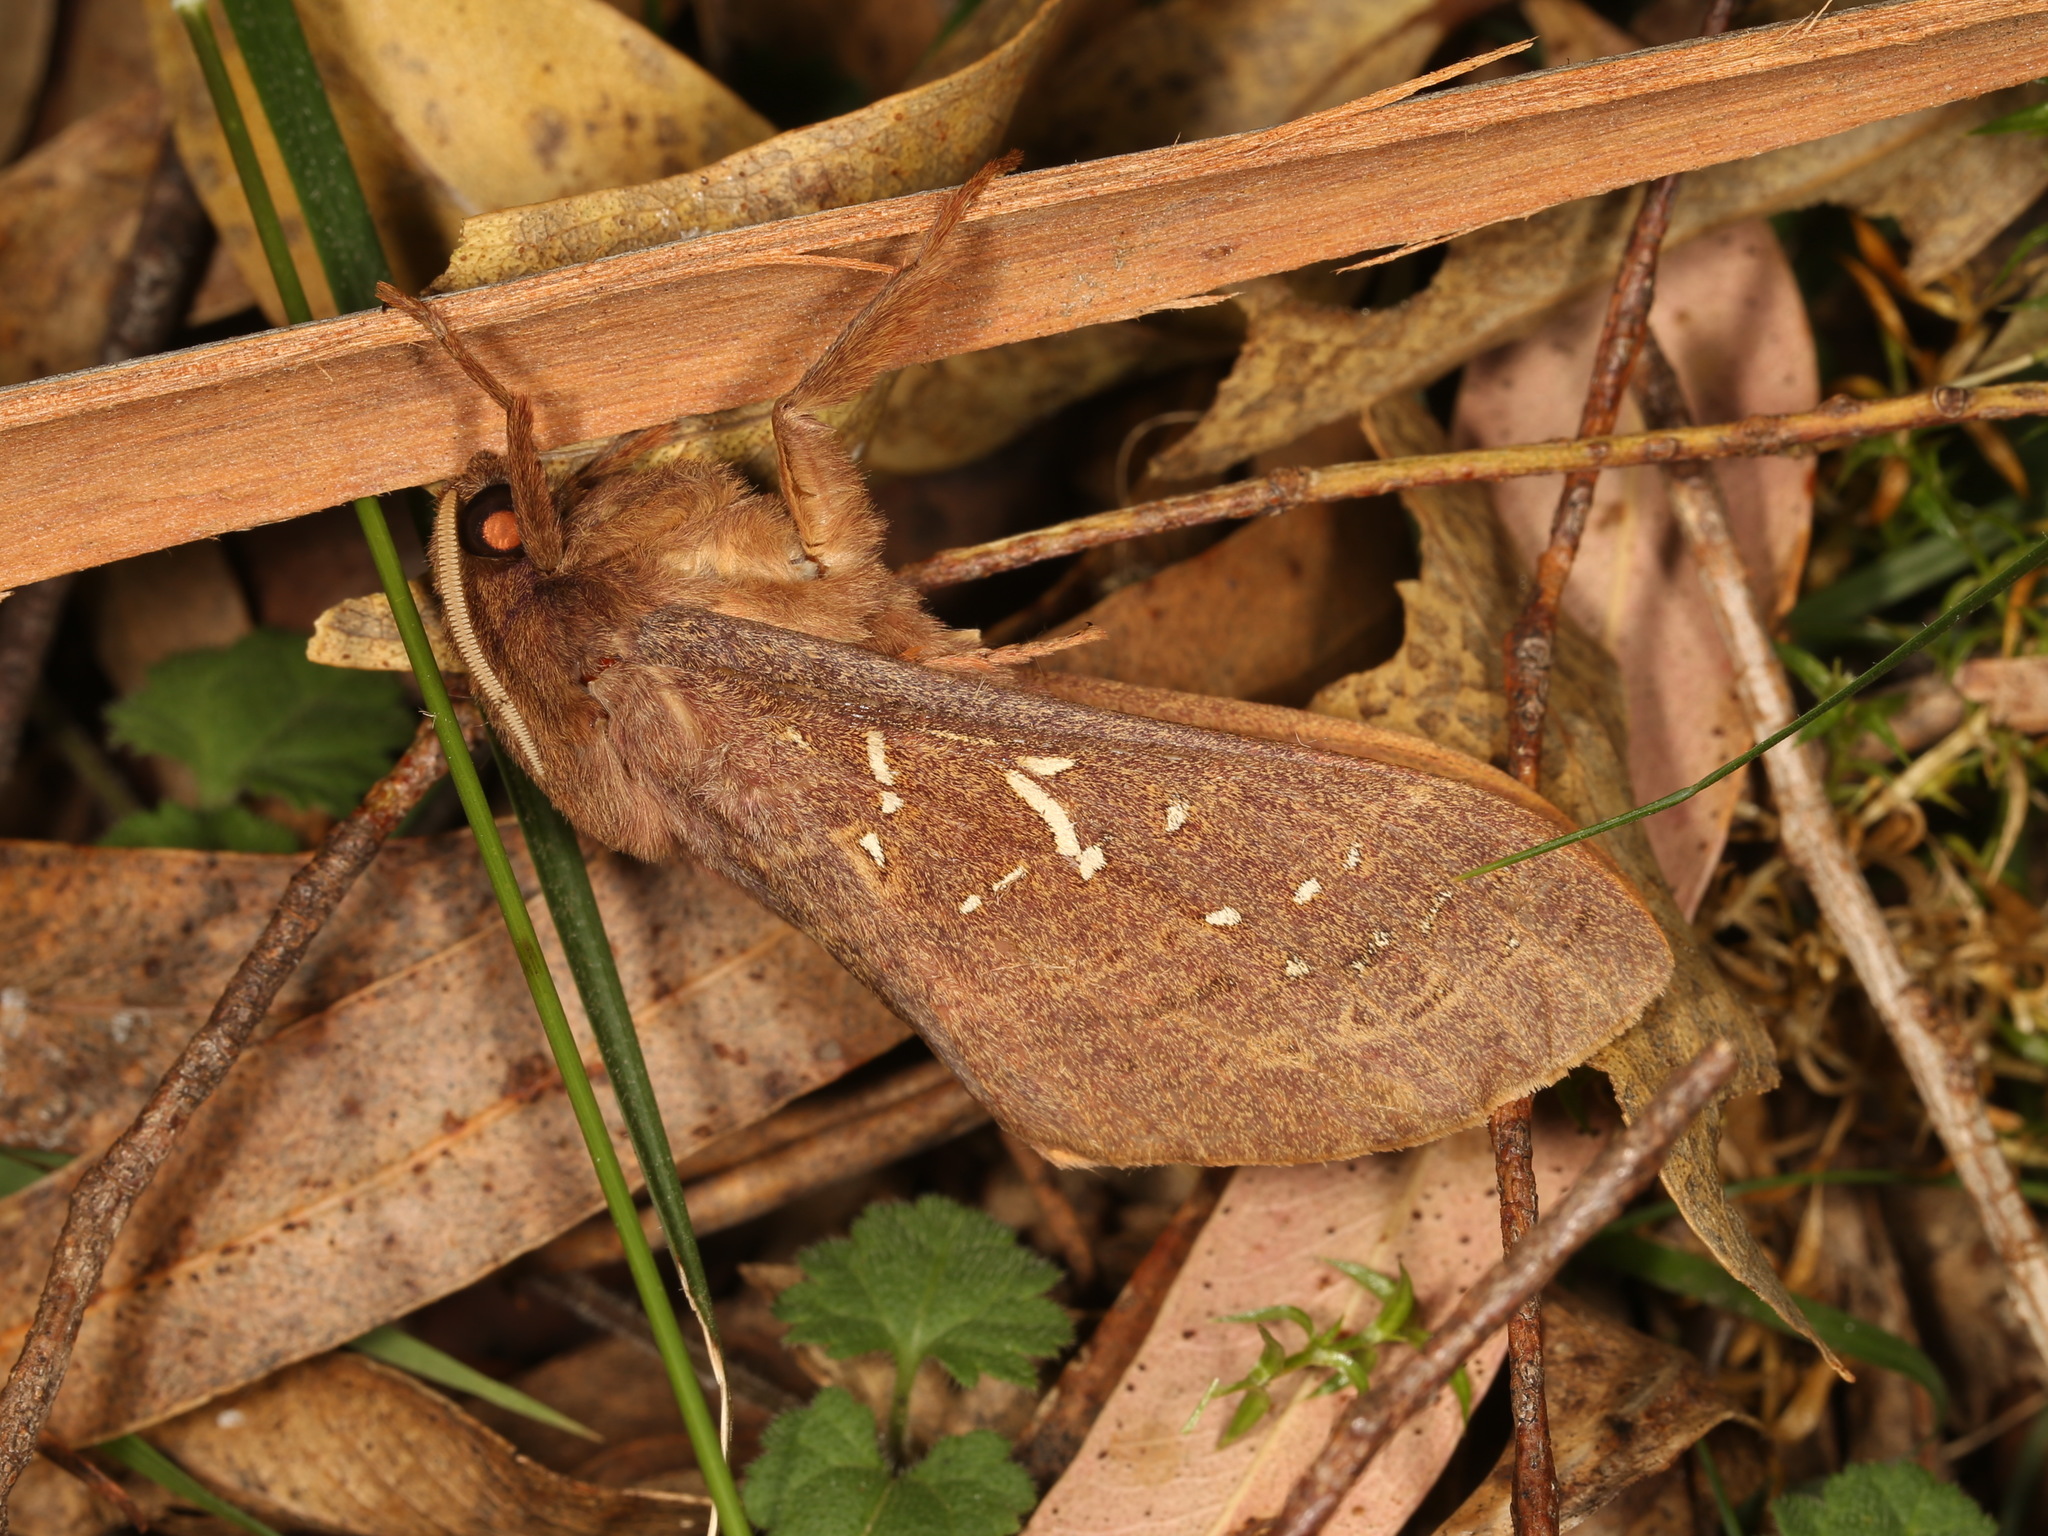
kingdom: Animalia
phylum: Arthropoda
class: Insecta
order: Lepidoptera
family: Hepialidae
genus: Oxycanus
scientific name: Oxycanus sirpus
